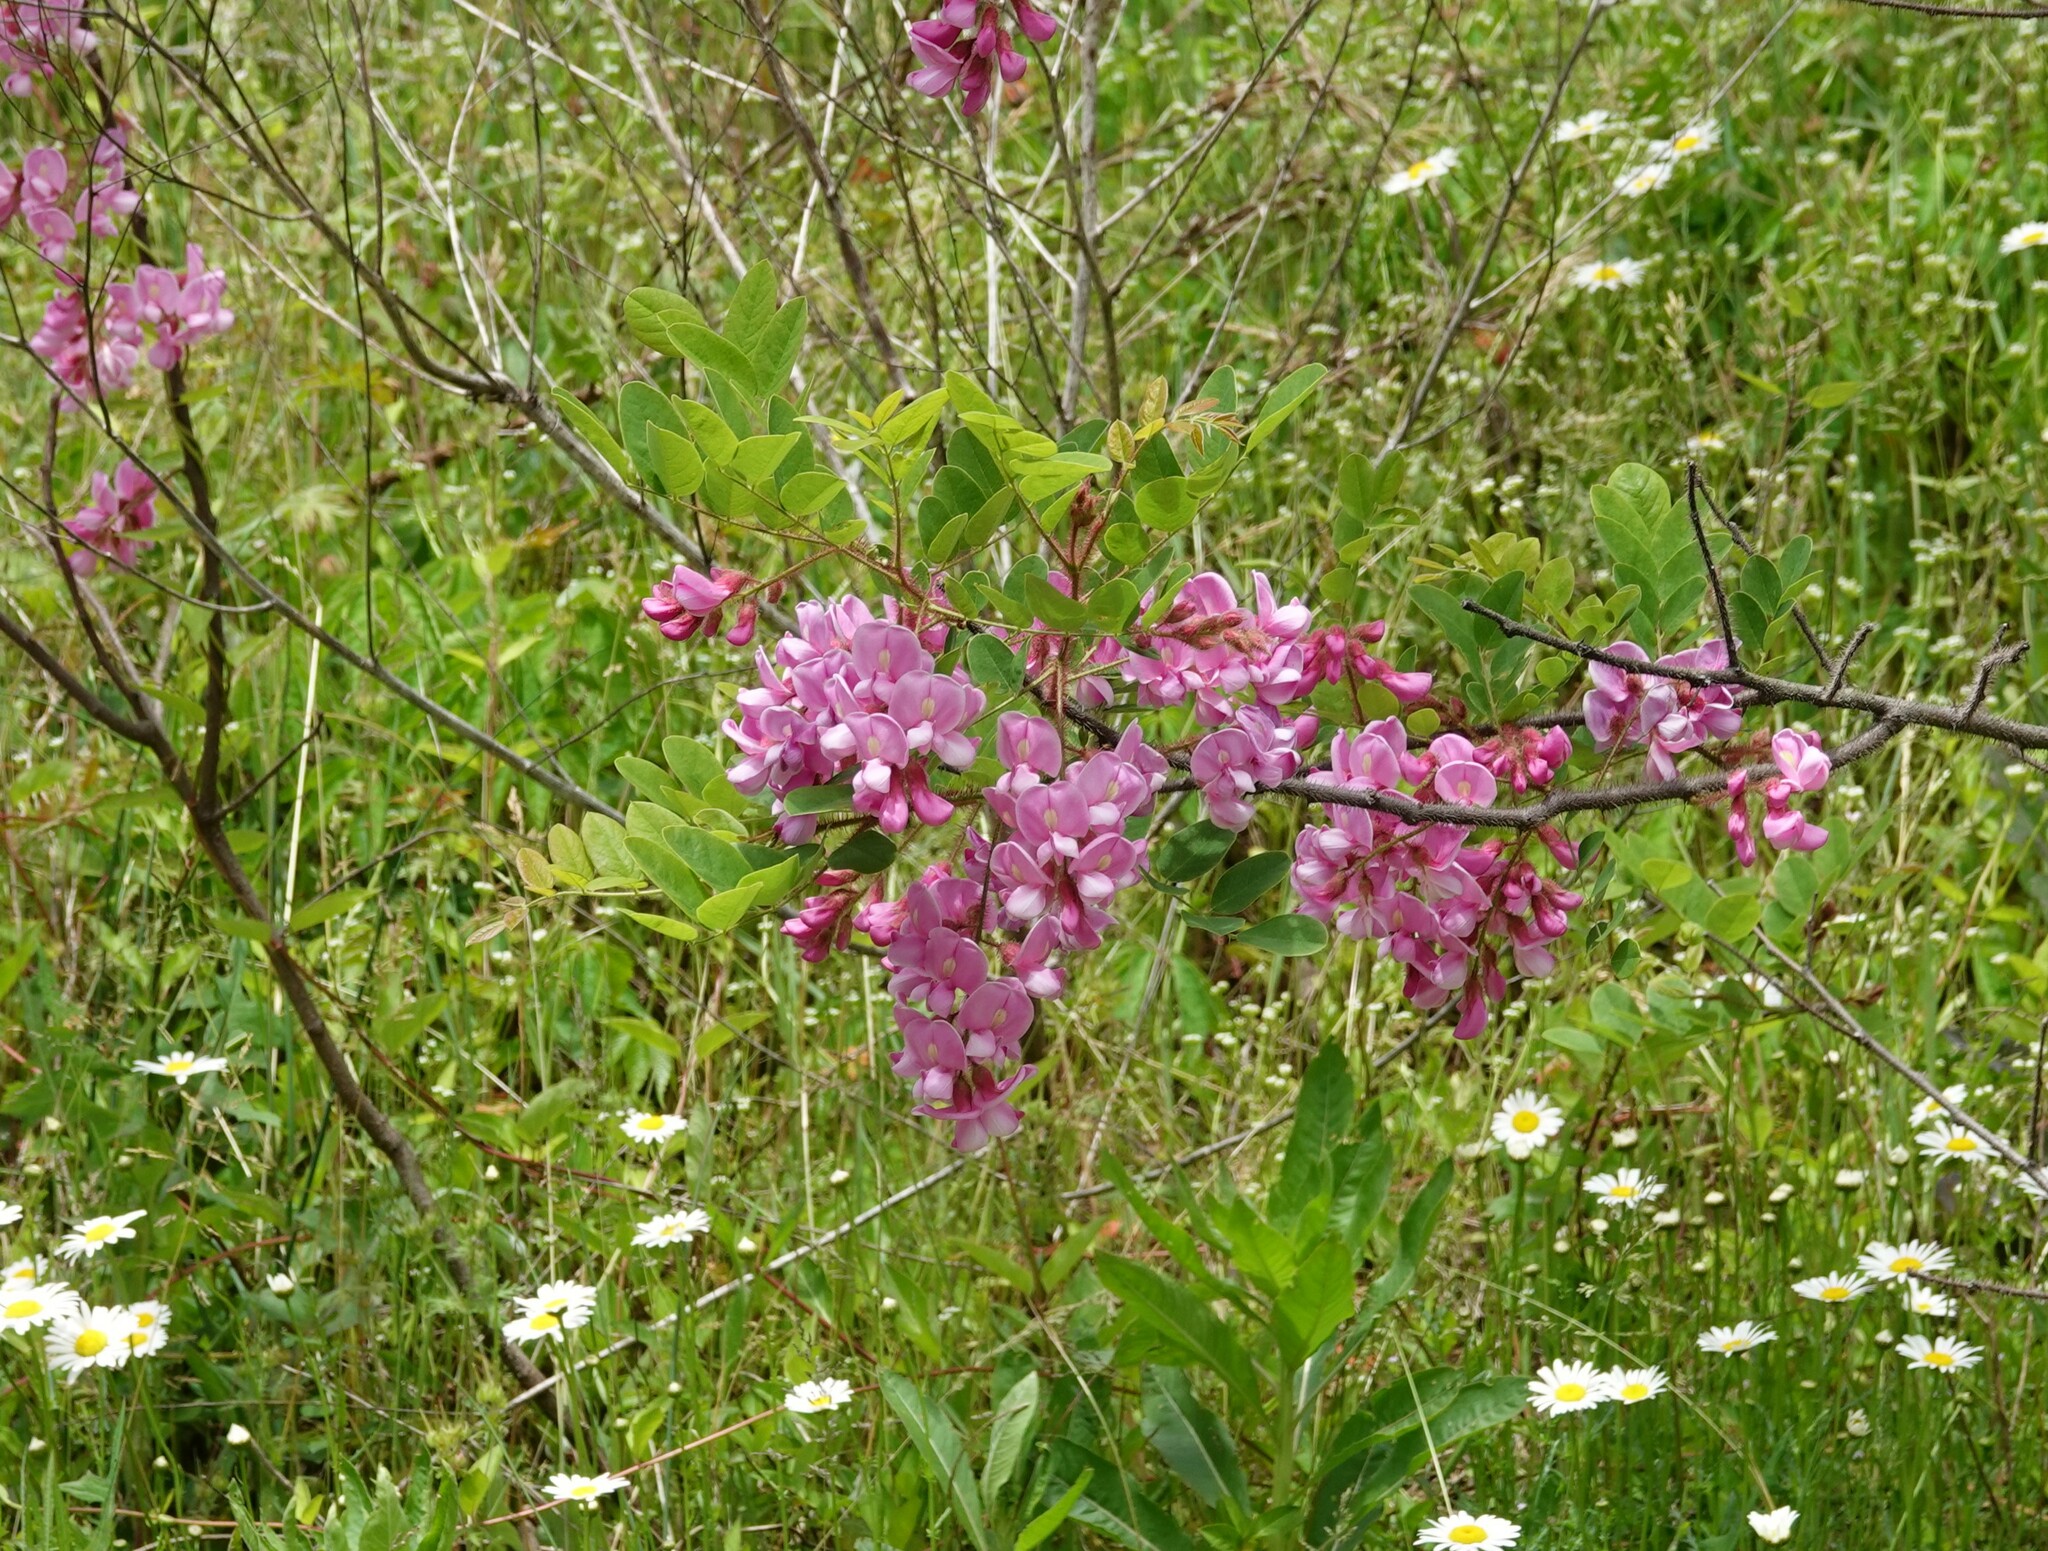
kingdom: Plantae
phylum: Tracheophyta
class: Magnoliopsida
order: Fabales
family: Fabaceae
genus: Robinia
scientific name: Robinia hispida
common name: Bristly locust
